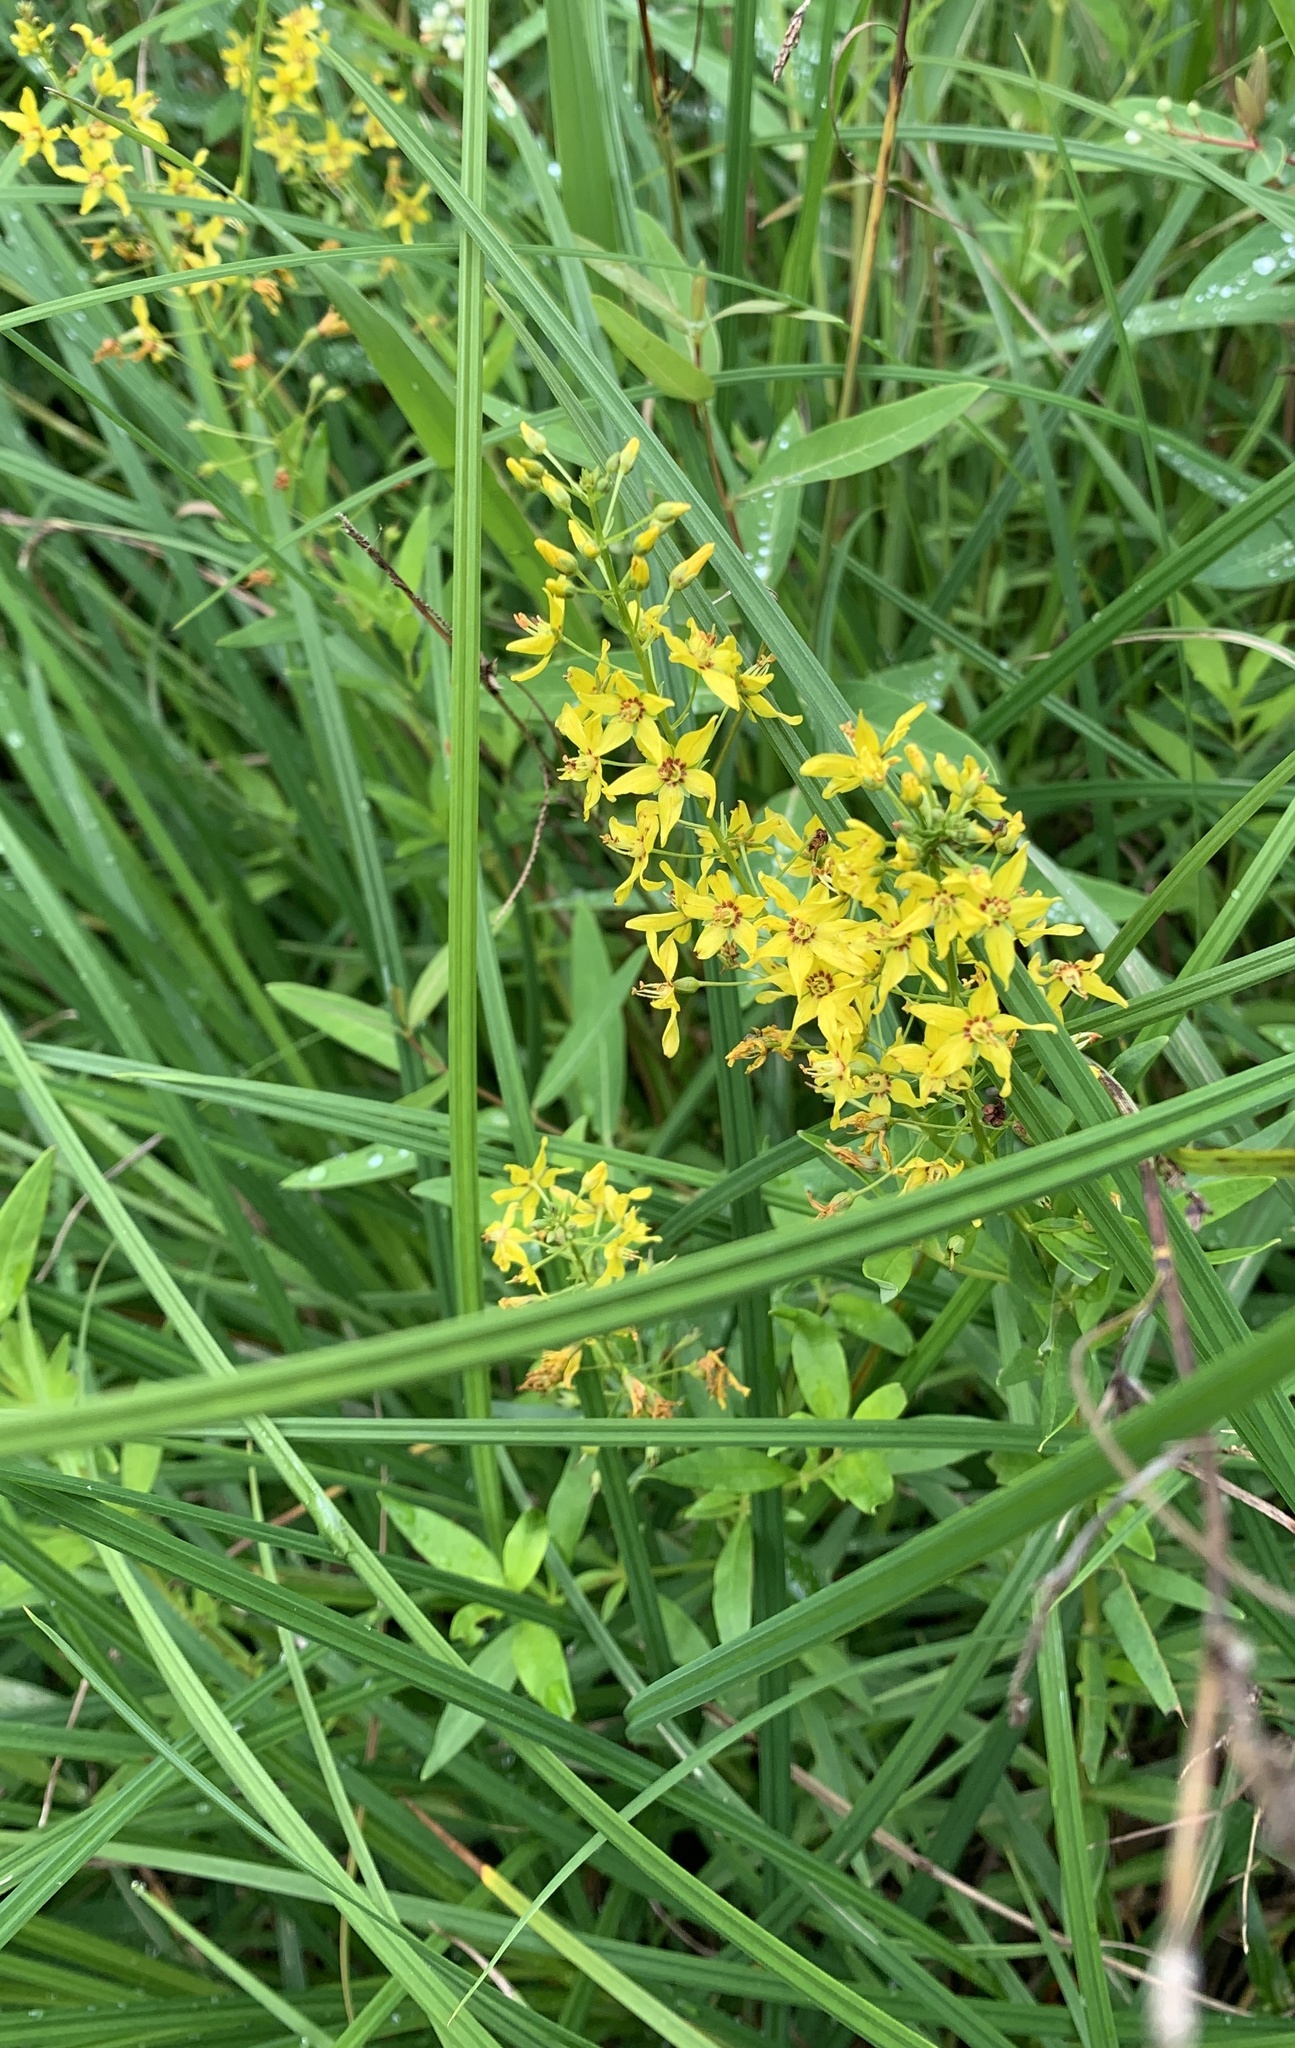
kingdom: Plantae
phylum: Tracheophyta
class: Magnoliopsida
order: Ericales
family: Primulaceae
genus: Lysimachia
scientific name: Lysimachia terrestris
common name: Lake loosestrife
